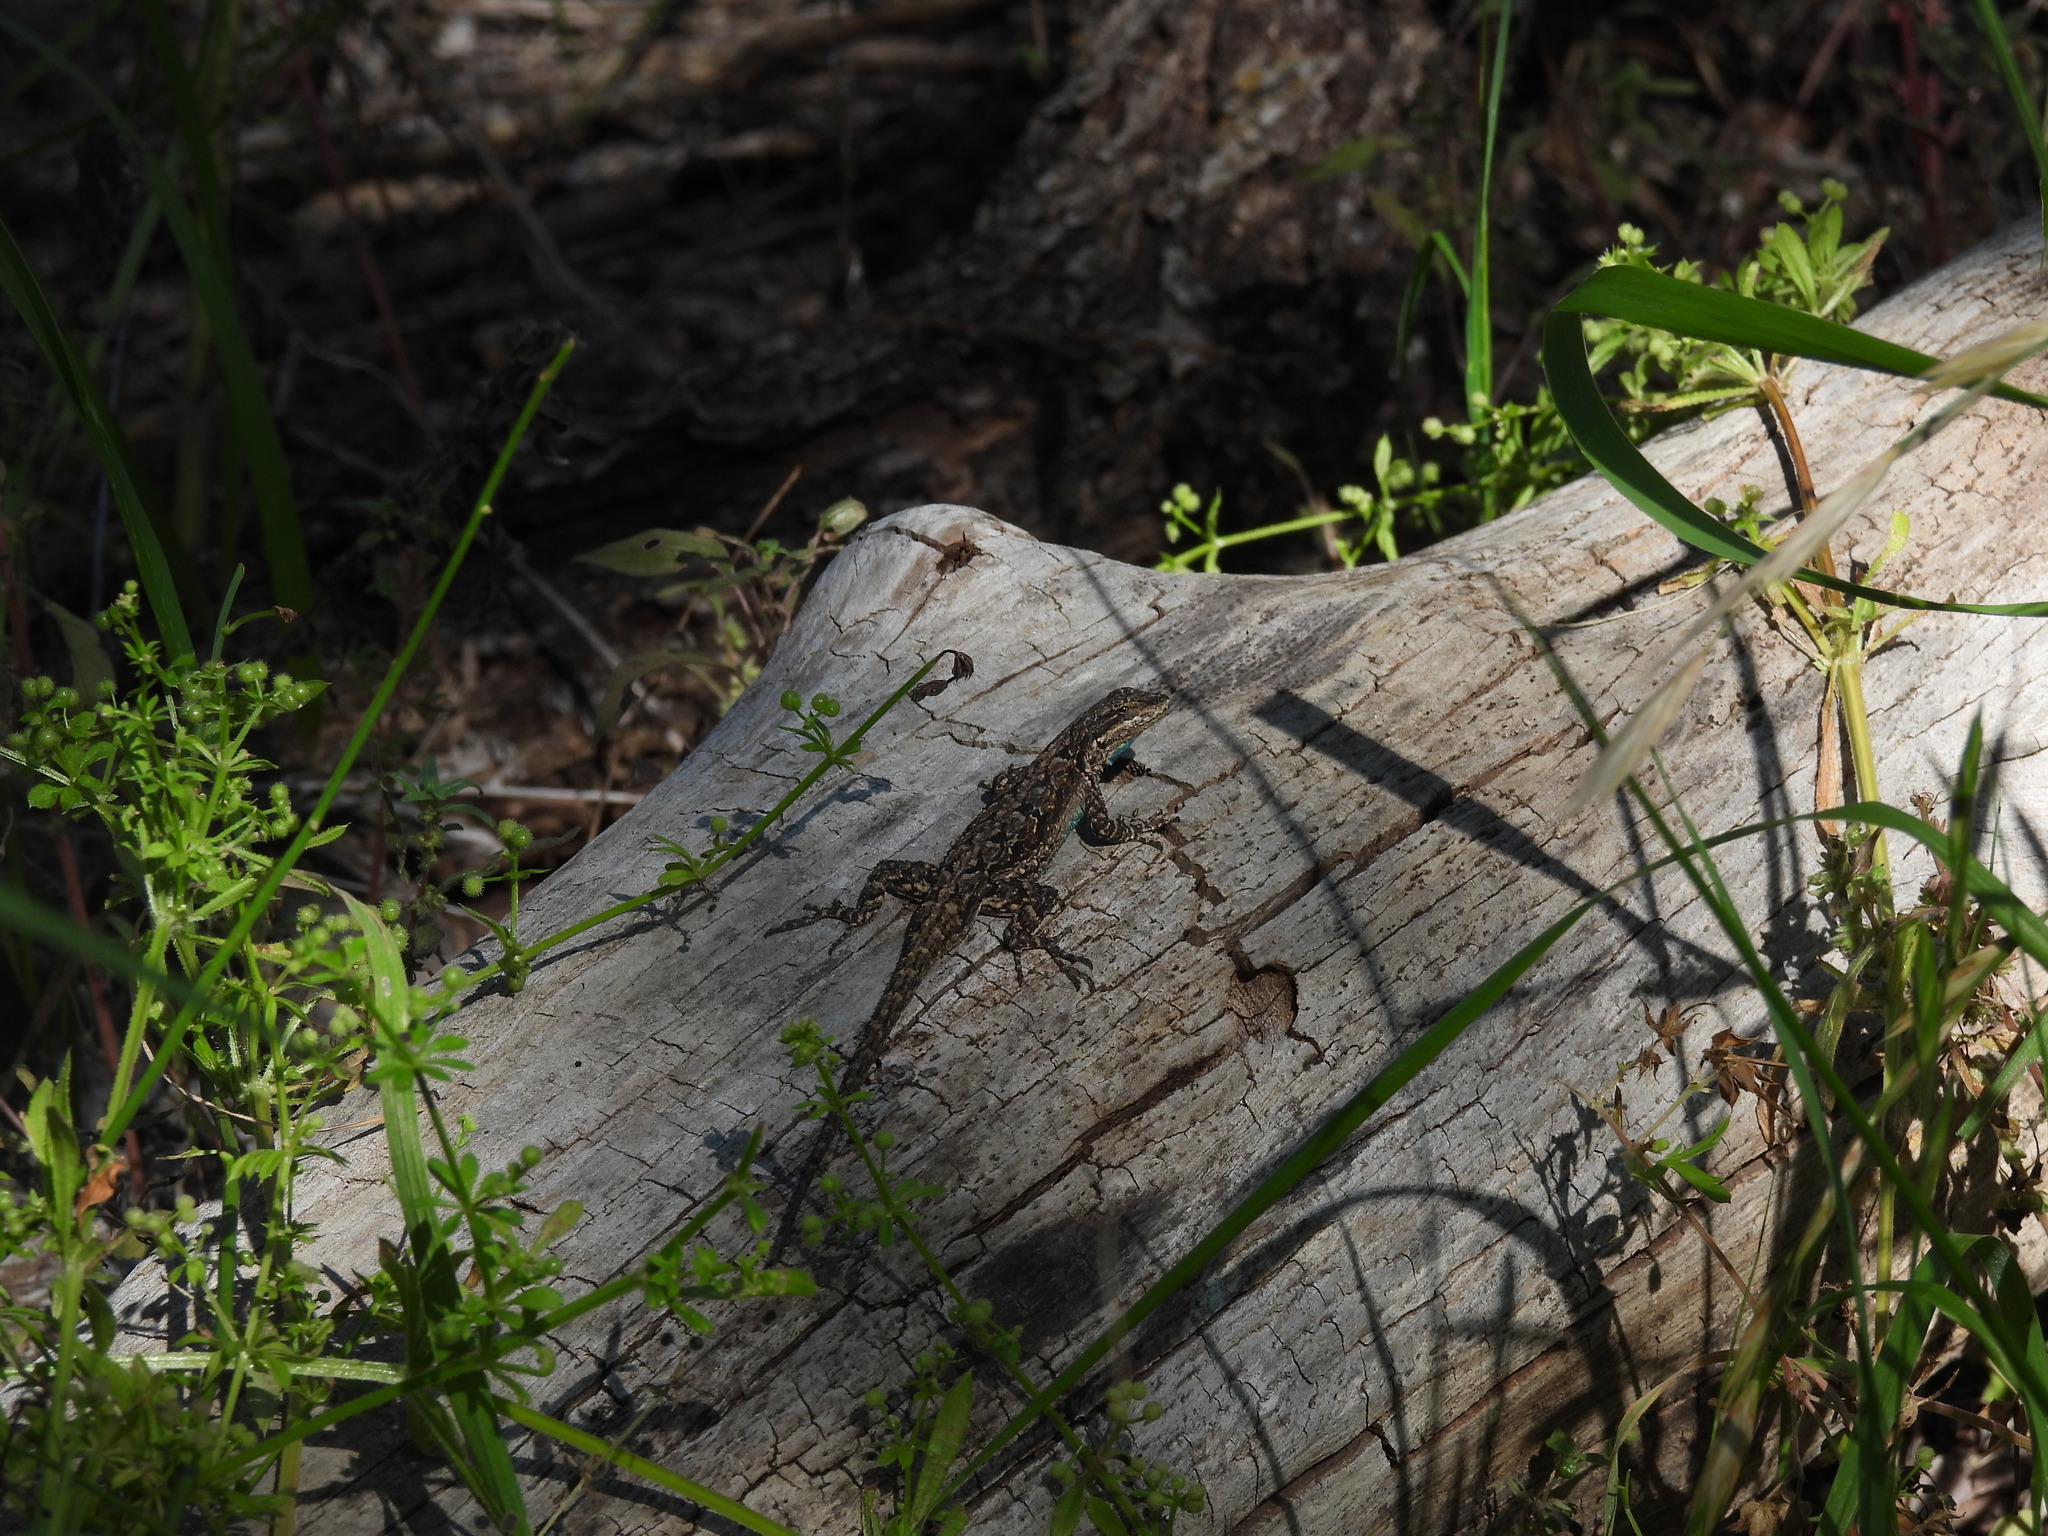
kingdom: Animalia
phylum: Chordata
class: Squamata
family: Phrynosomatidae
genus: Urosaurus
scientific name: Urosaurus ornatus
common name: Ornate tree lizard
